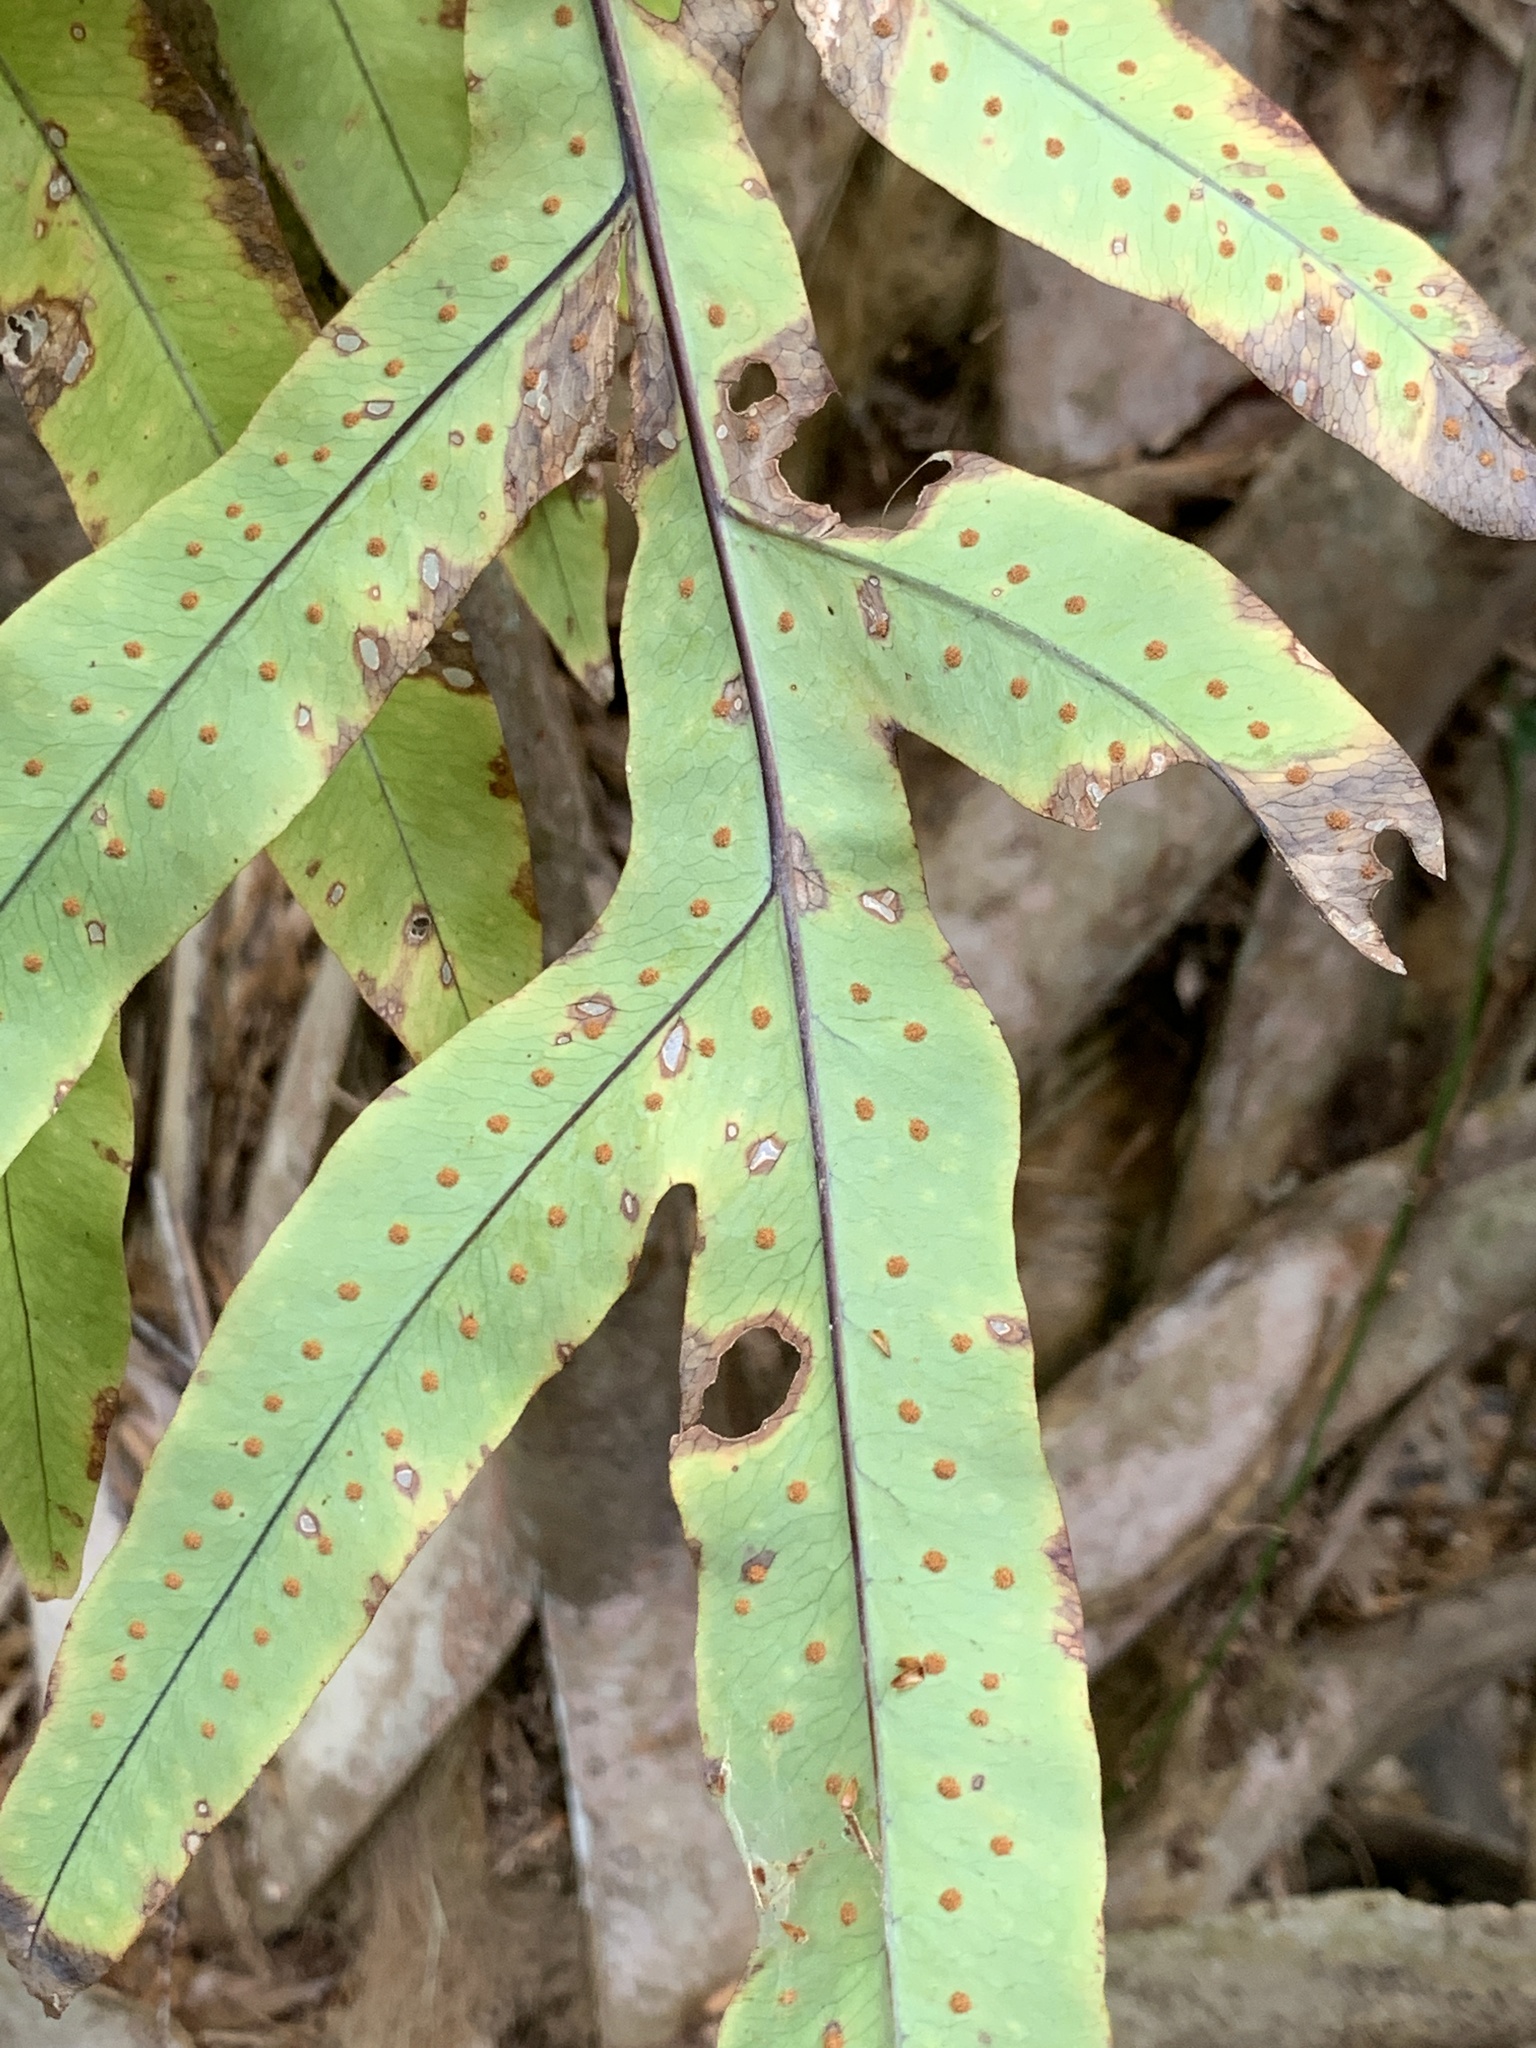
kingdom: Plantae
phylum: Tracheophyta
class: Polypodiopsida
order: Polypodiales
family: Polypodiaceae
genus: Phlebodium
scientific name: Phlebodium aureum
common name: Gold-foot fern
